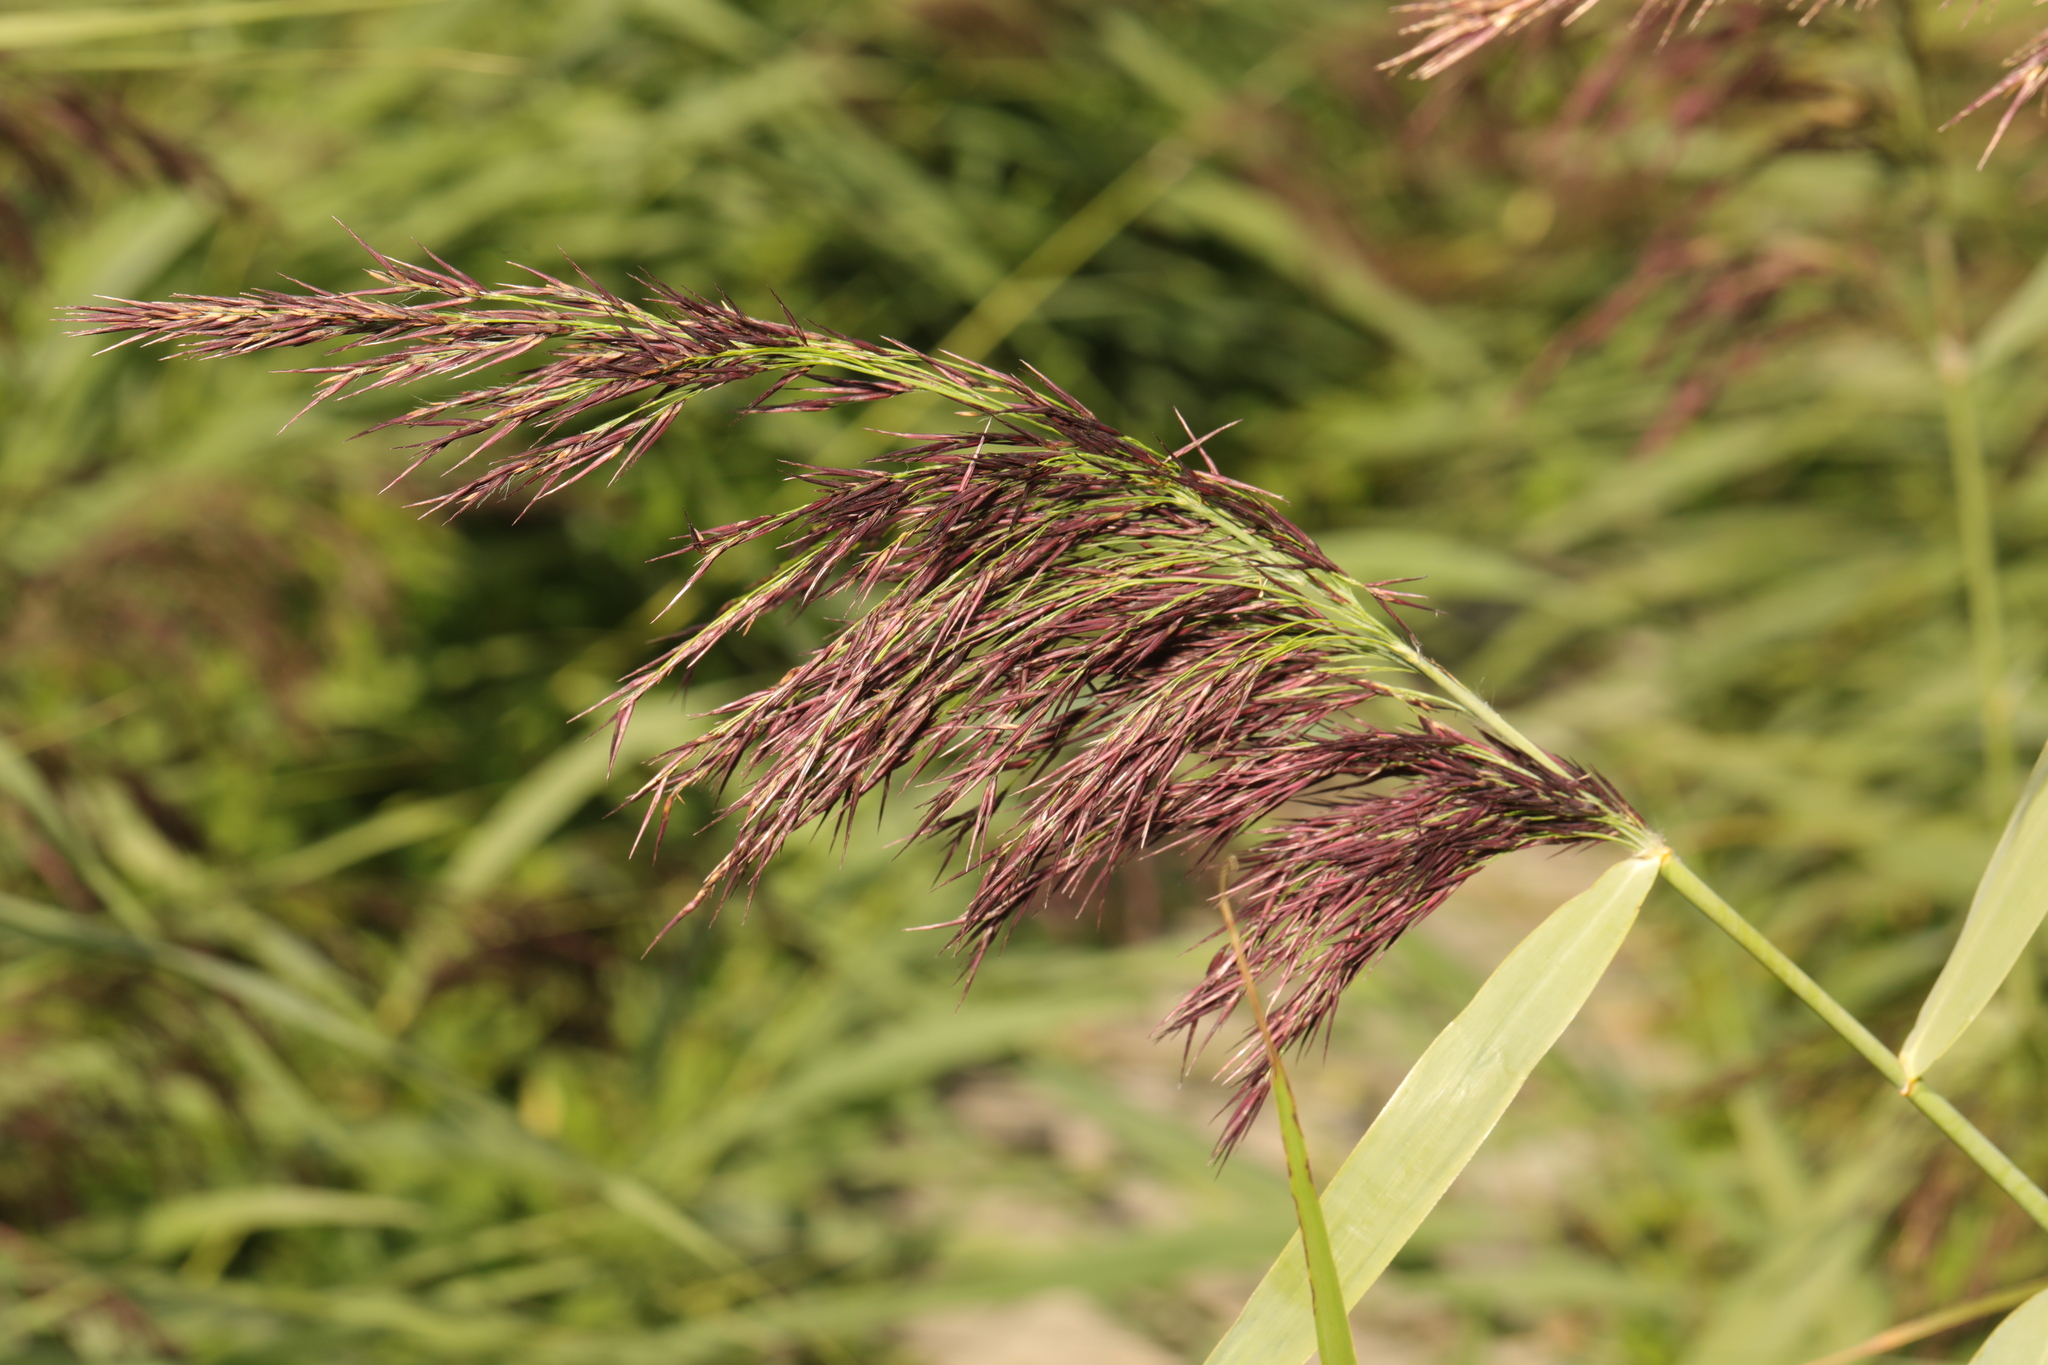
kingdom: Plantae
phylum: Tracheophyta
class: Liliopsida
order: Poales
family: Poaceae
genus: Phragmites
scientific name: Phragmites australis
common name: Common reed
